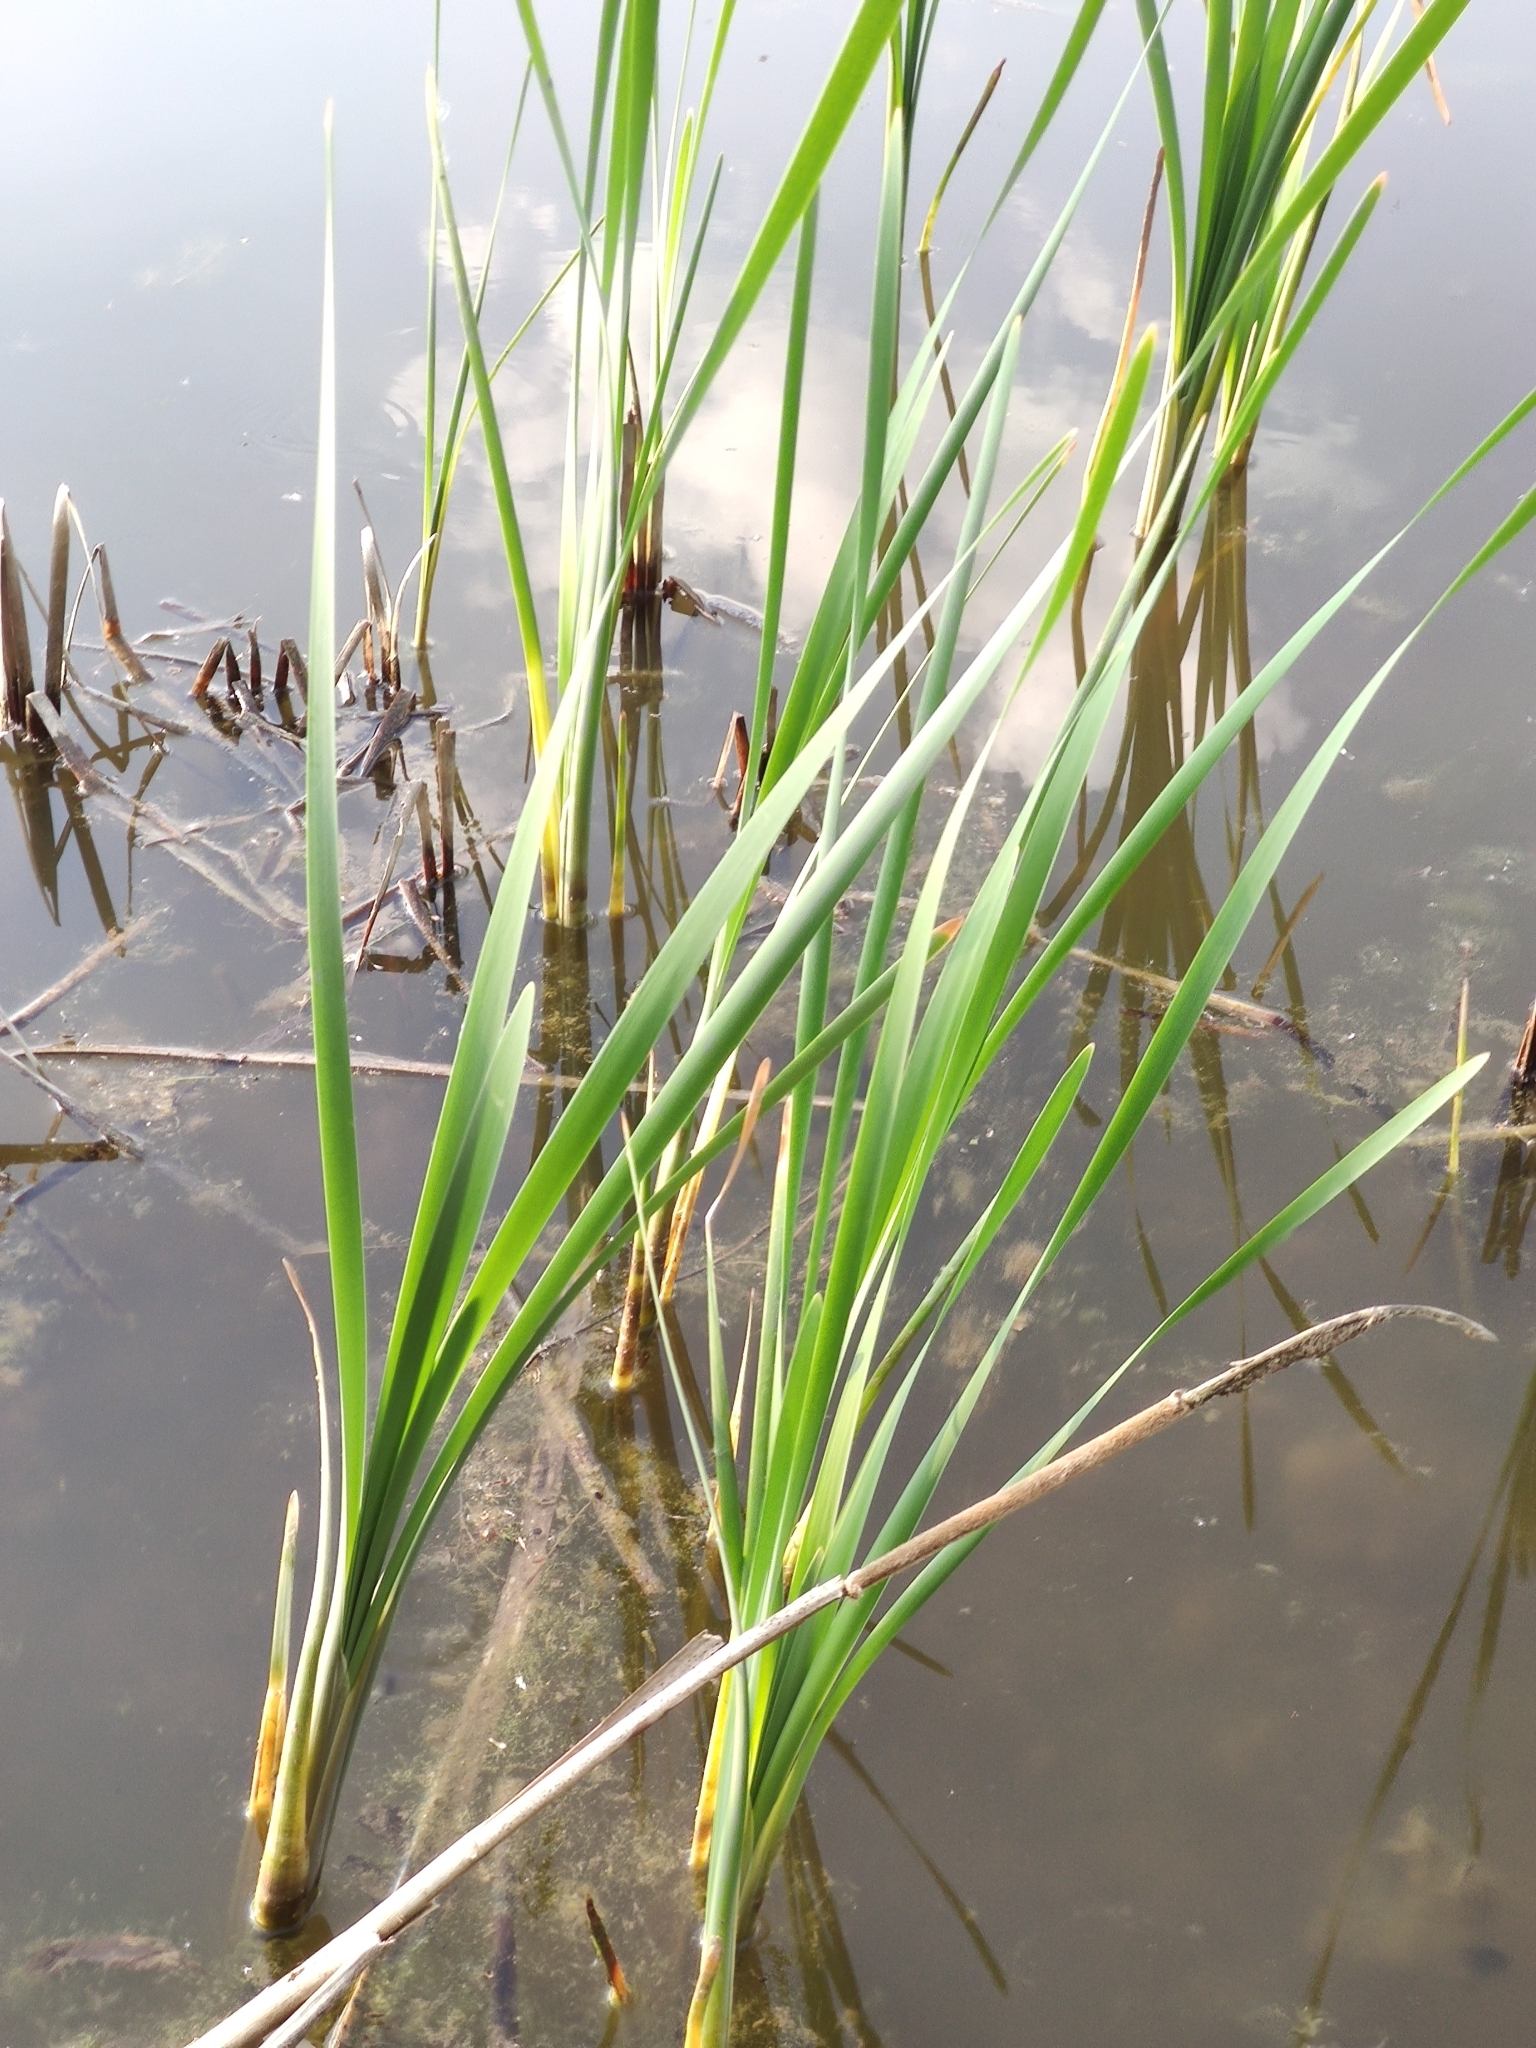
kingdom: Plantae
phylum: Tracheophyta
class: Liliopsida
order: Poales
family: Typhaceae
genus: Typha
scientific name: Typha latifolia
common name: Broadleaf cattail
